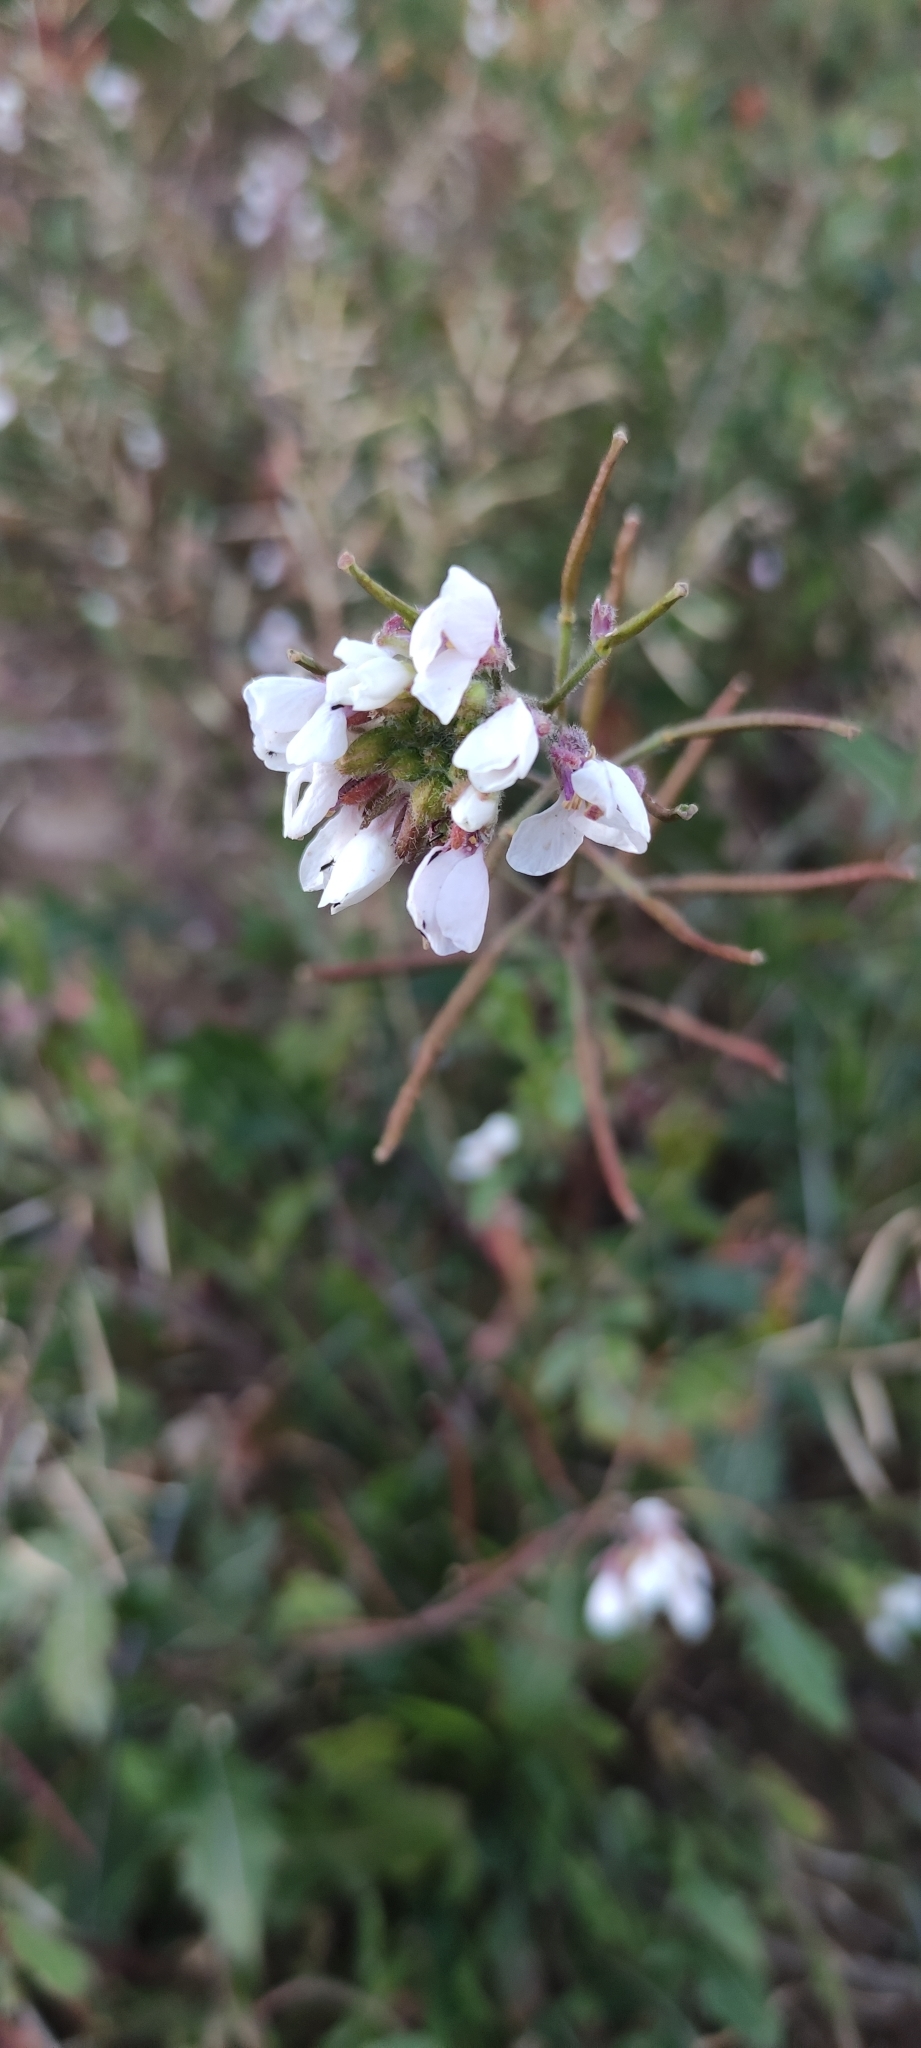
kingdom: Plantae
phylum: Tracheophyta
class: Magnoliopsida
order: Brassicales
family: Brassicaceae
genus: Diplotaxis
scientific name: Diplotaxis erucoides
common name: White rocket
